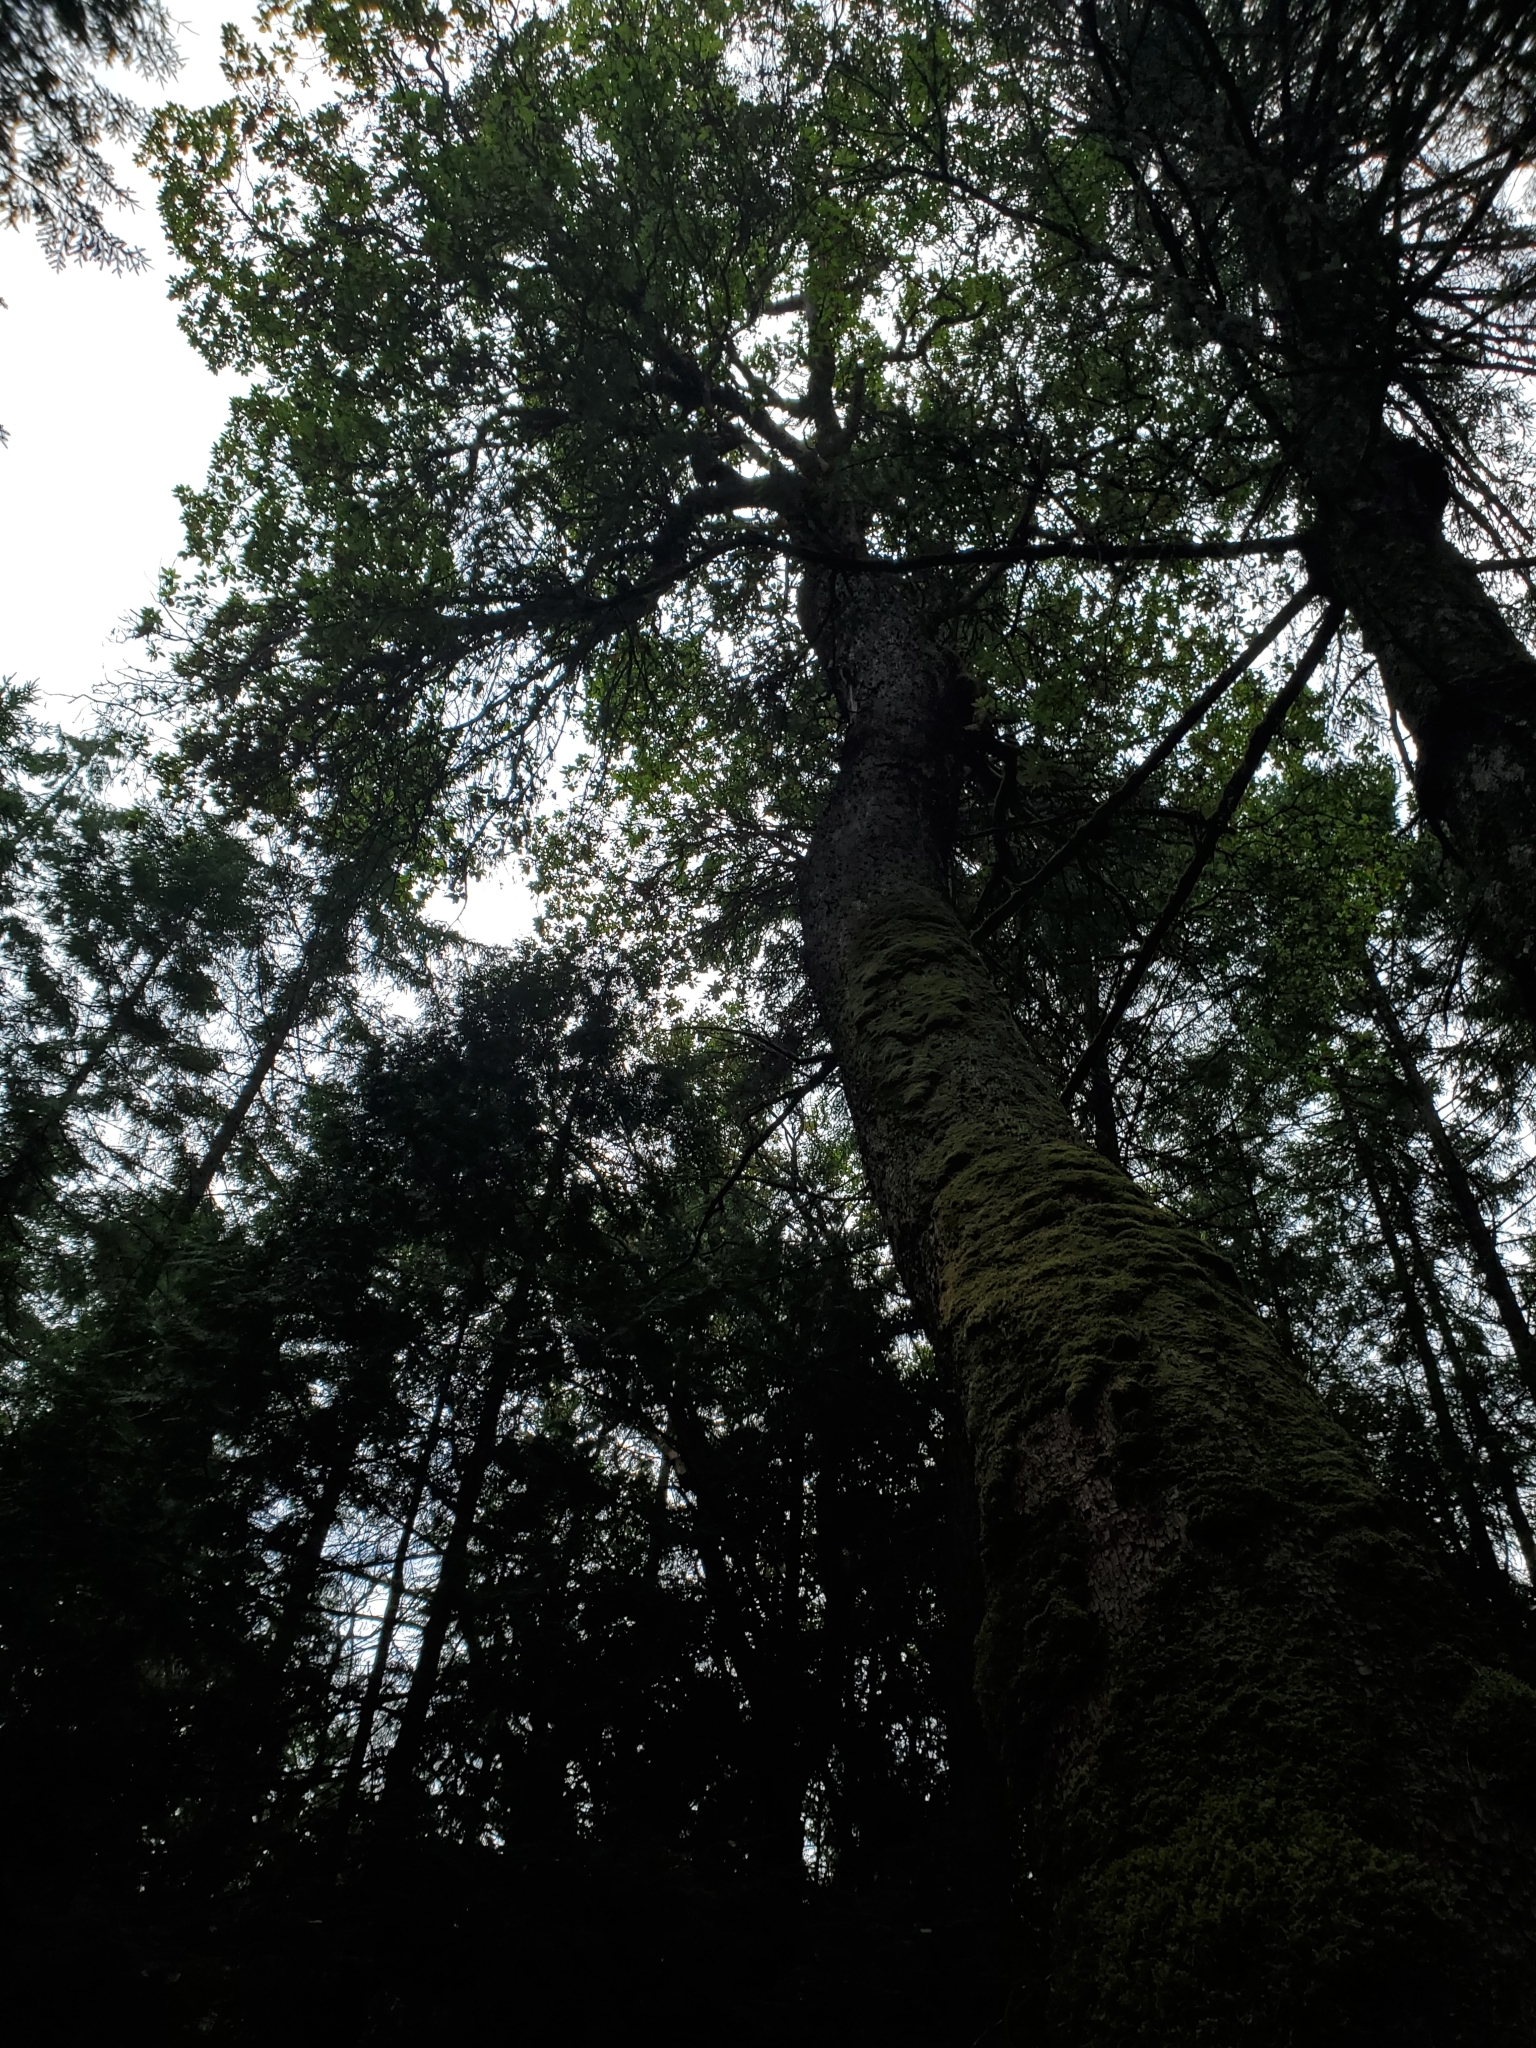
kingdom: Plantae
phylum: Tracheophyta
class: Magnoliopsida
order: Ericales
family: Ericaceae
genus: Arbutus
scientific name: Arbutus menziesii
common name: Pacific madrone
